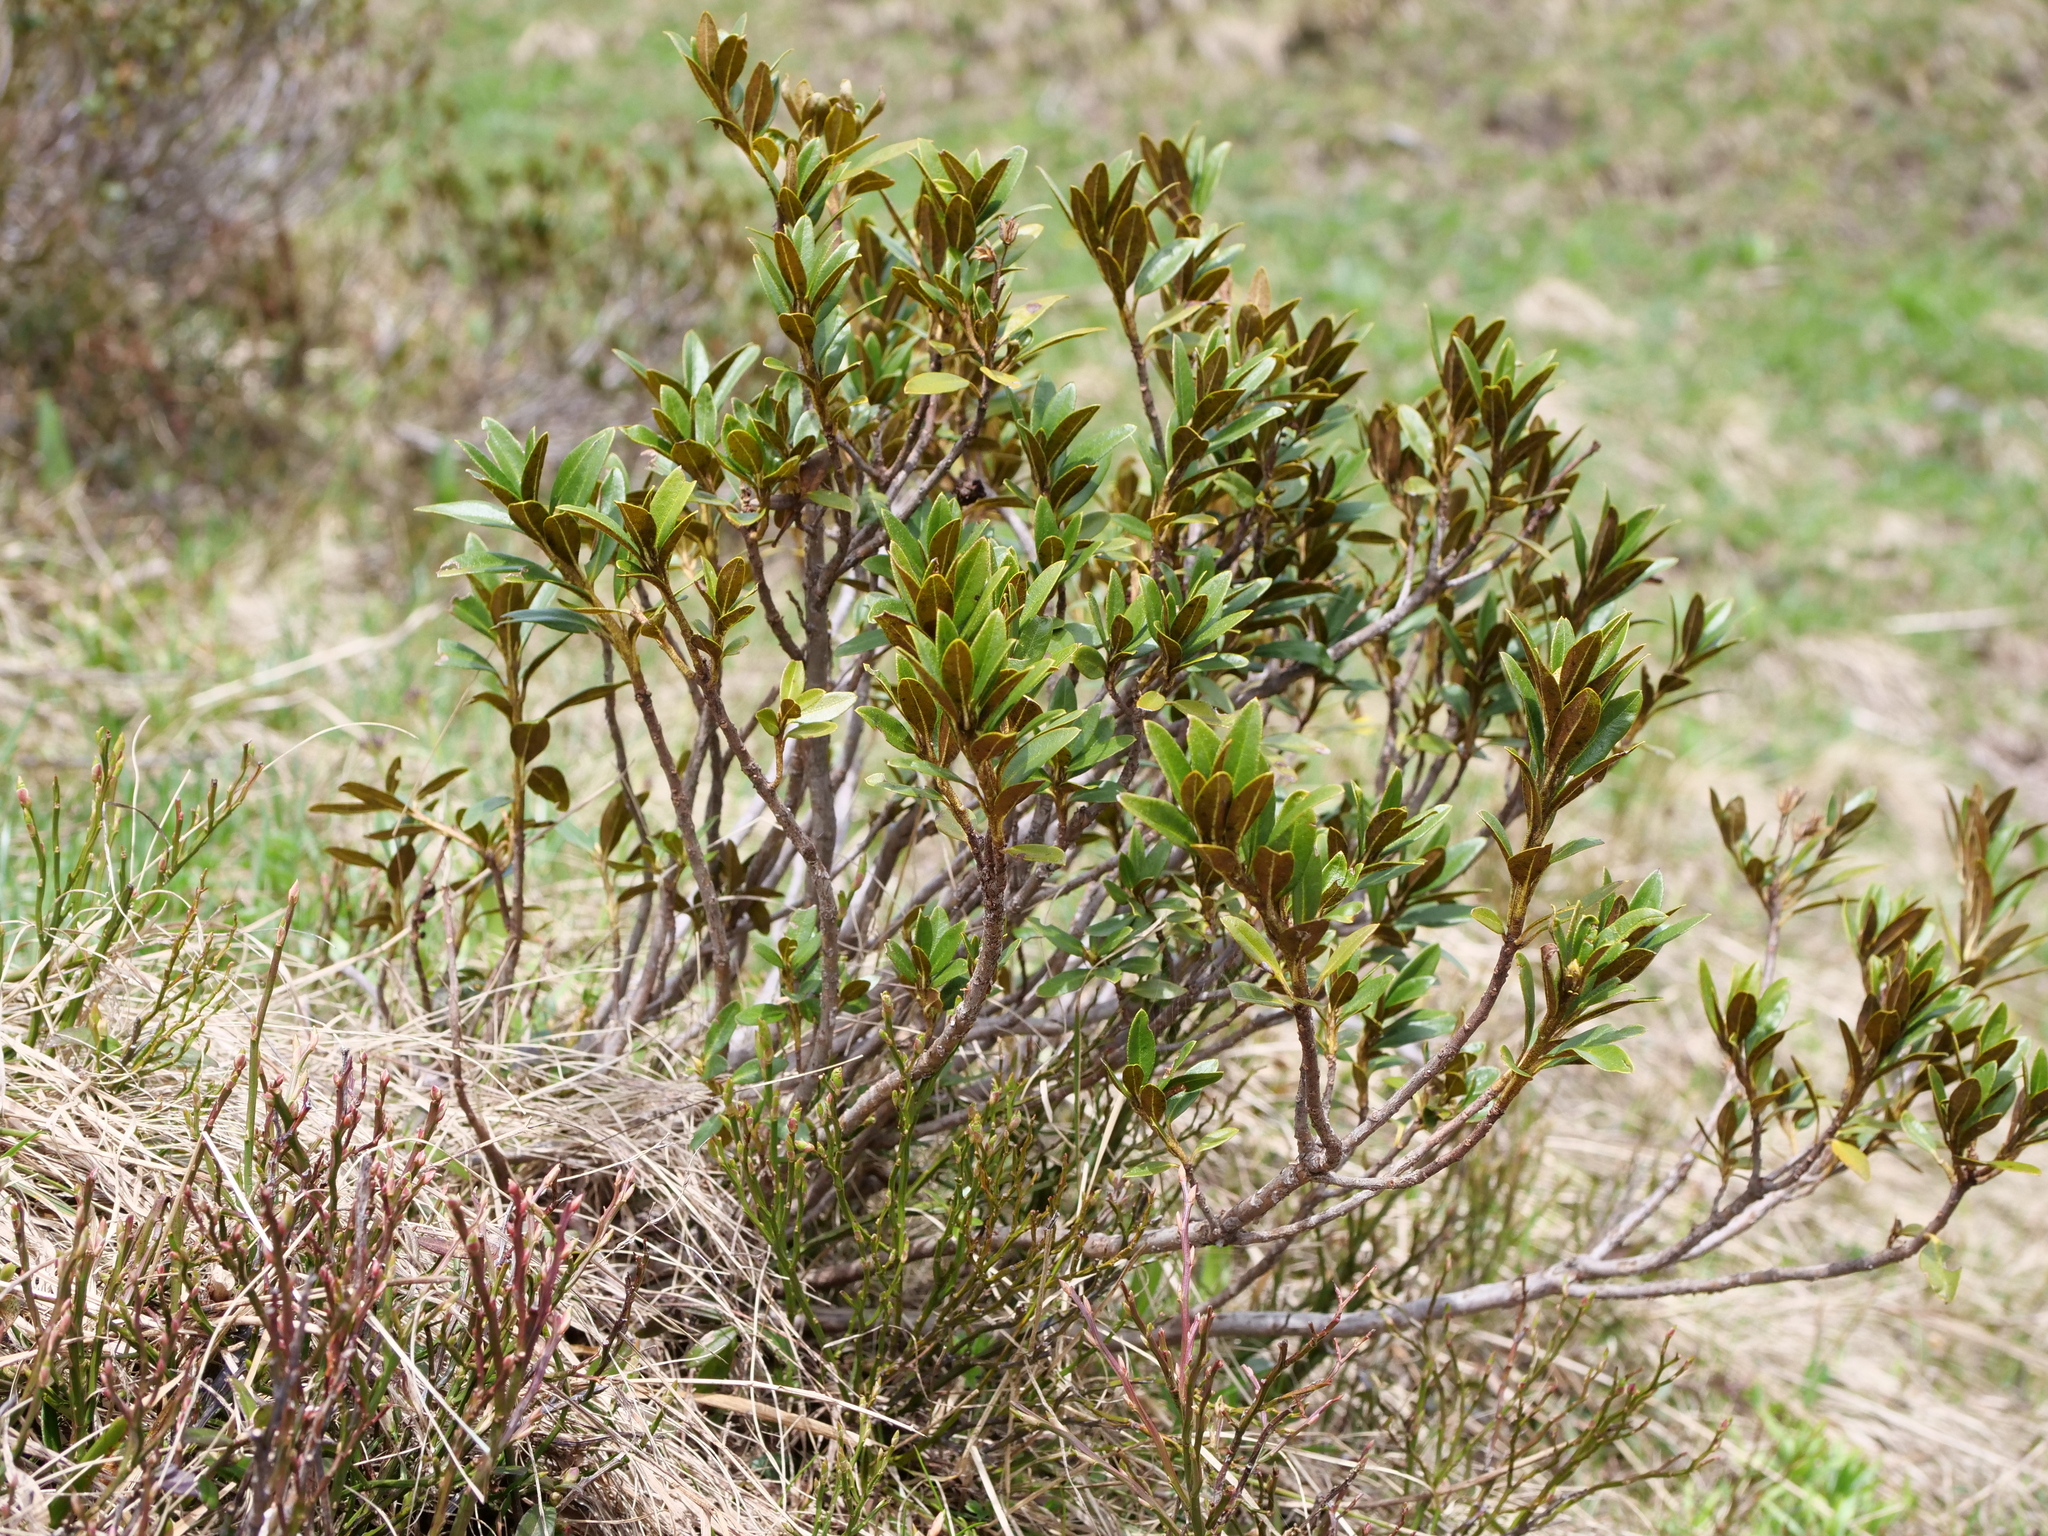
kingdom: Plantae
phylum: Tracheophyta
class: Magnoliopsida
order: Ericales
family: Ericaceae
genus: Rhododendron
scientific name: Rhododendron ferrugineum
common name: Alpenrose
